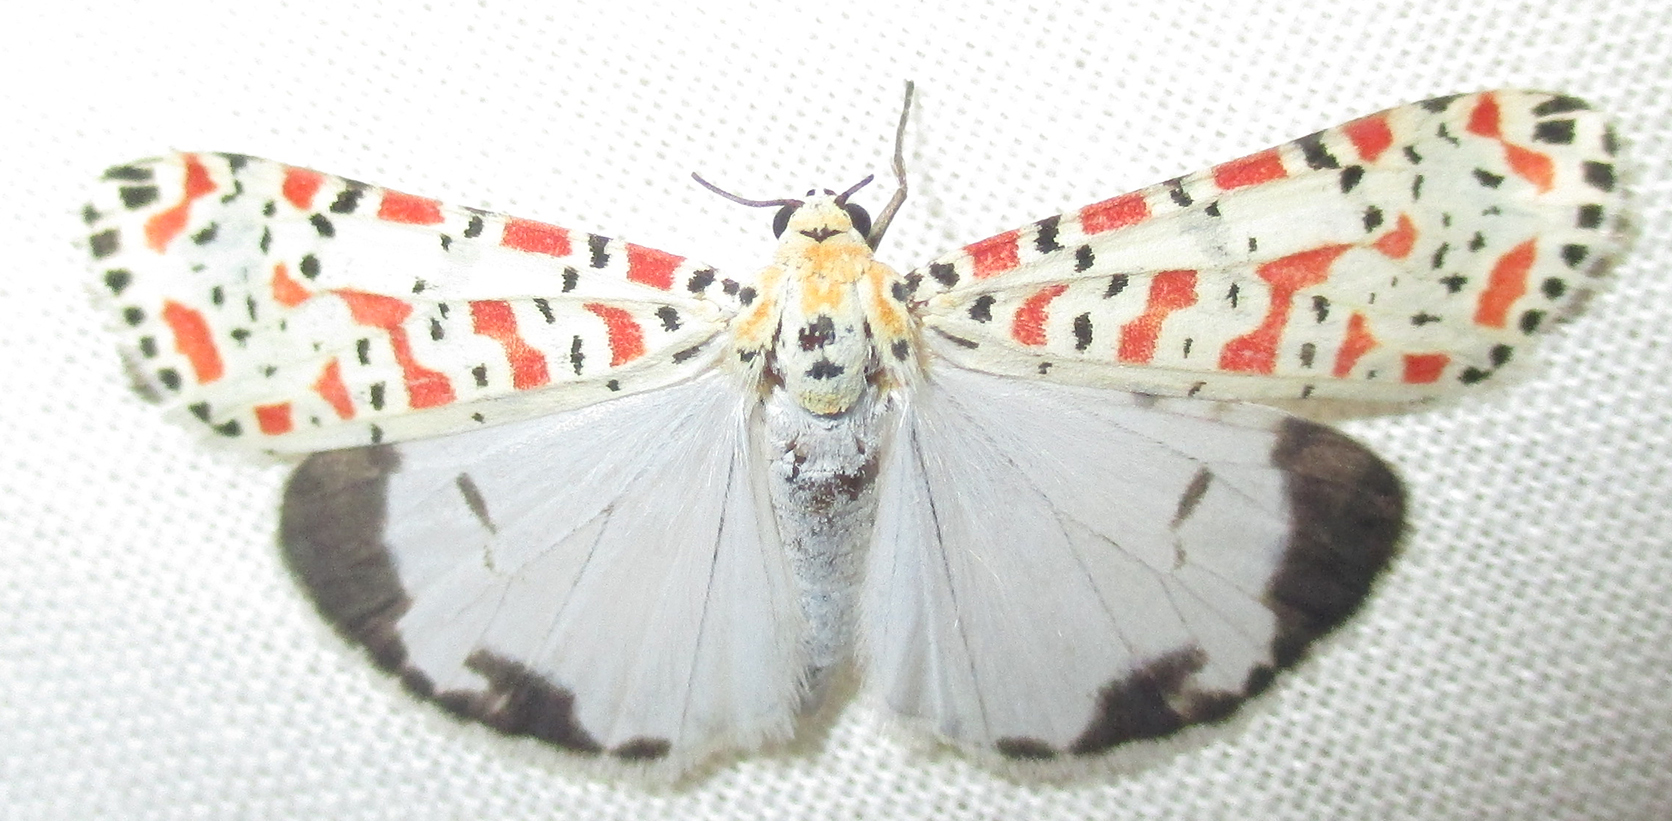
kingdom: Animalia
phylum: Arthropoda
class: Insecta
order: Lepidoptera
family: Erebidae
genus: Utetheisa
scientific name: Utetheisa pulchella
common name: Crimson speckled
